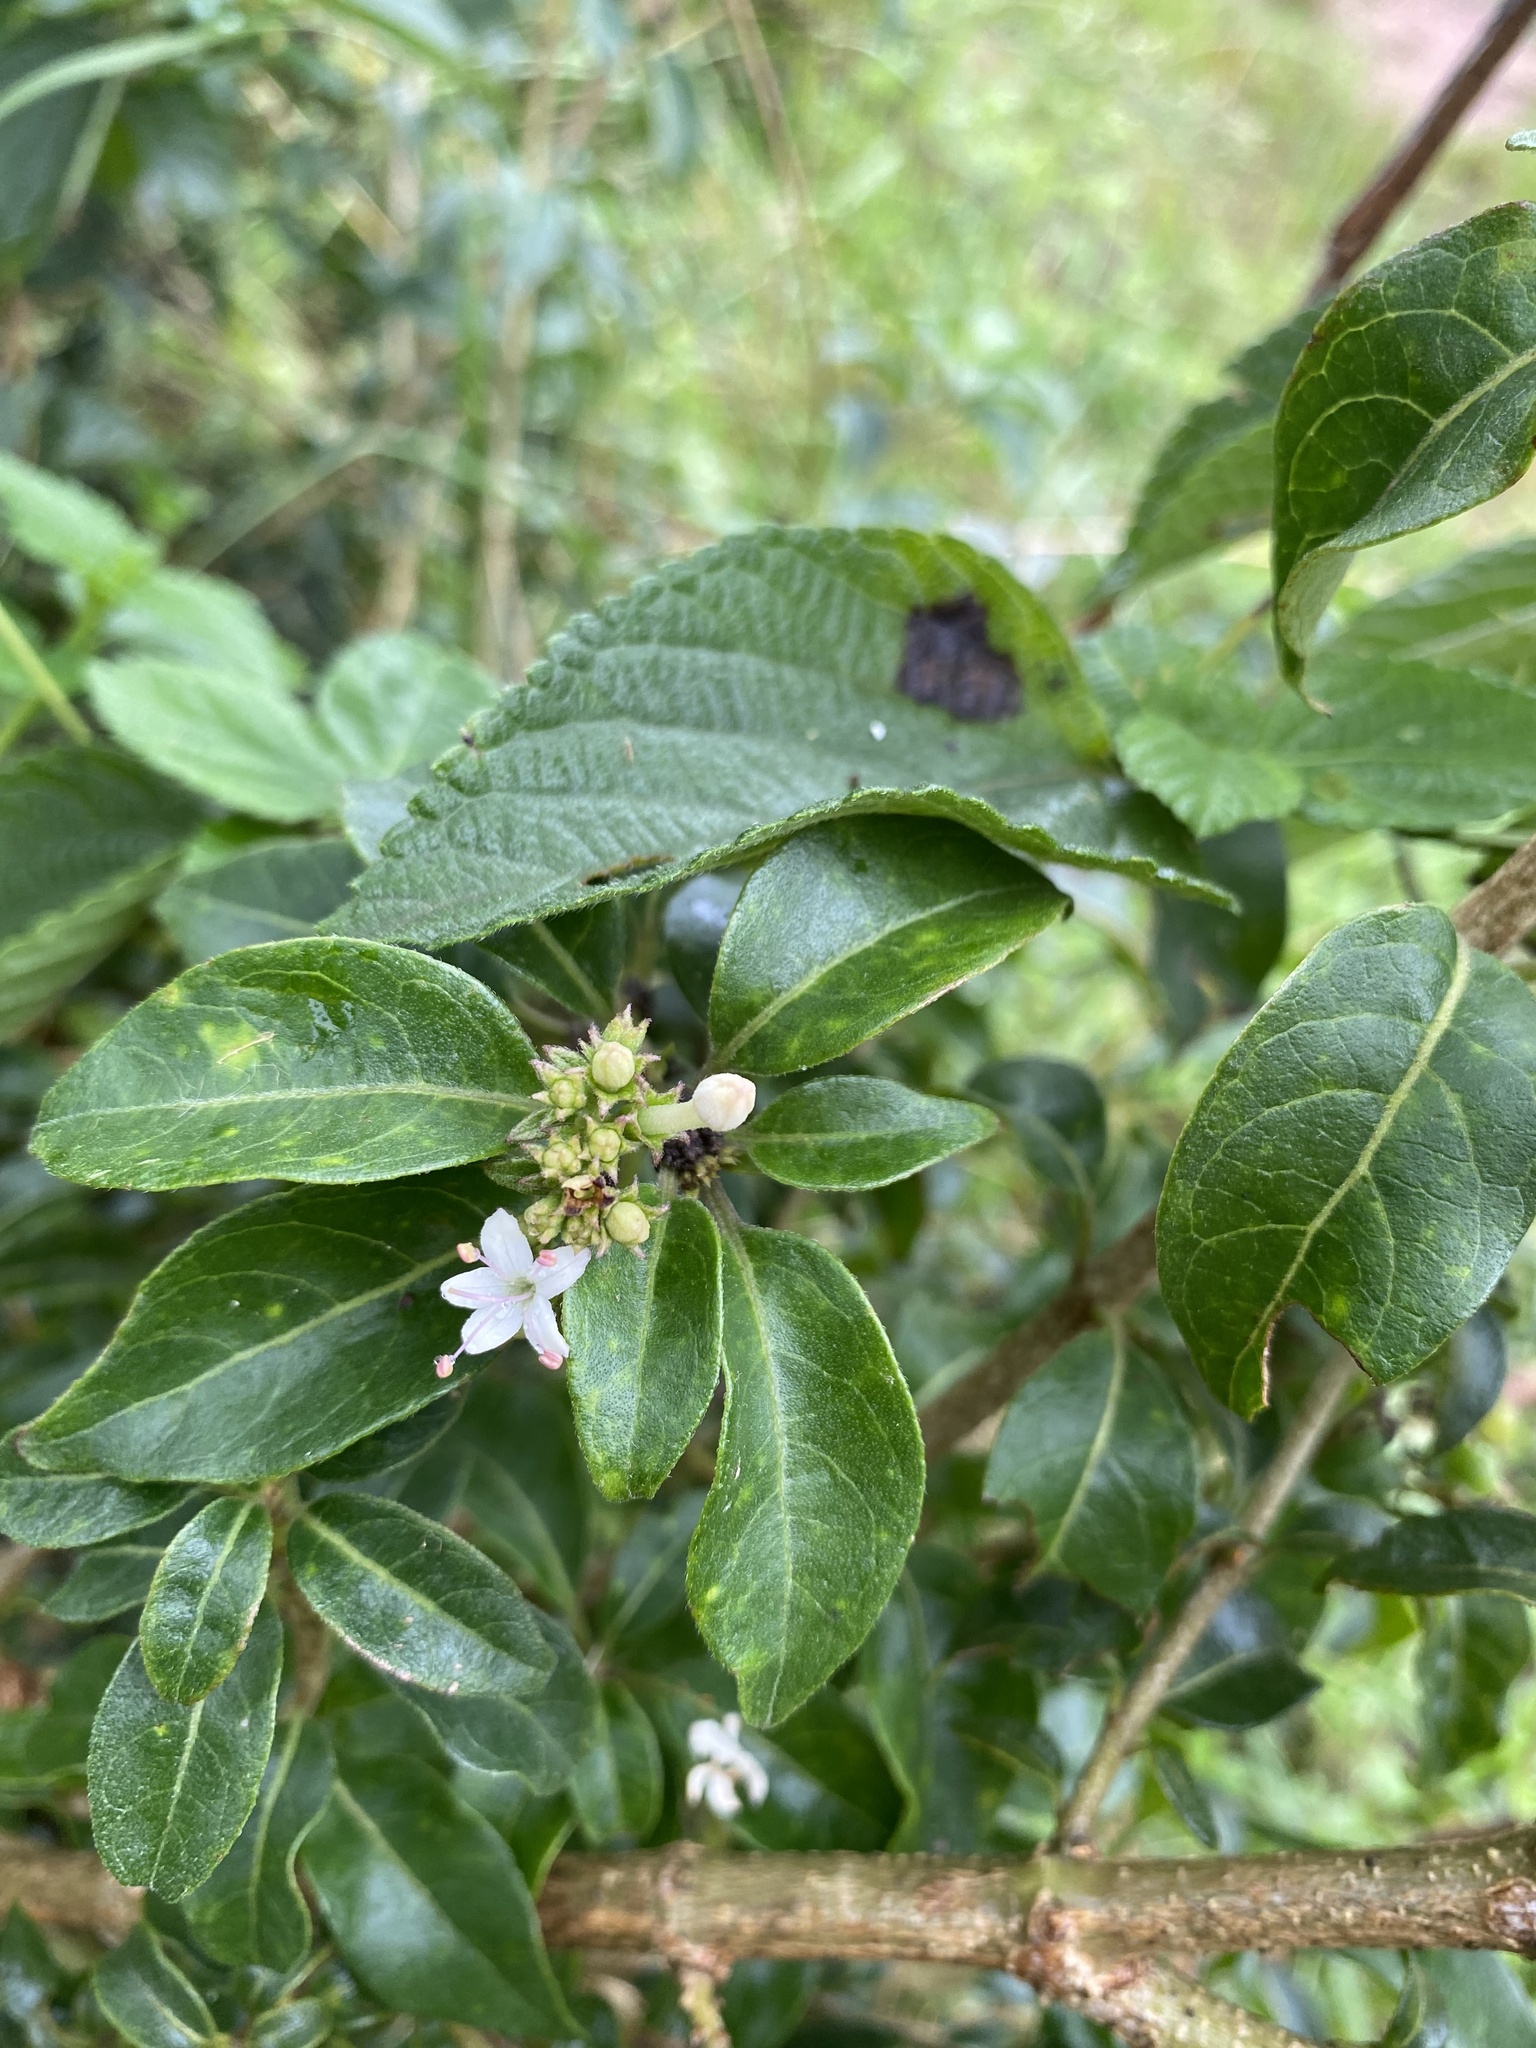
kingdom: Plantae
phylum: Tracheophyta
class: Magnoliopsida
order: Lamiales
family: Lamiaceae
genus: Volkameria
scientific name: Volkameria glabra
